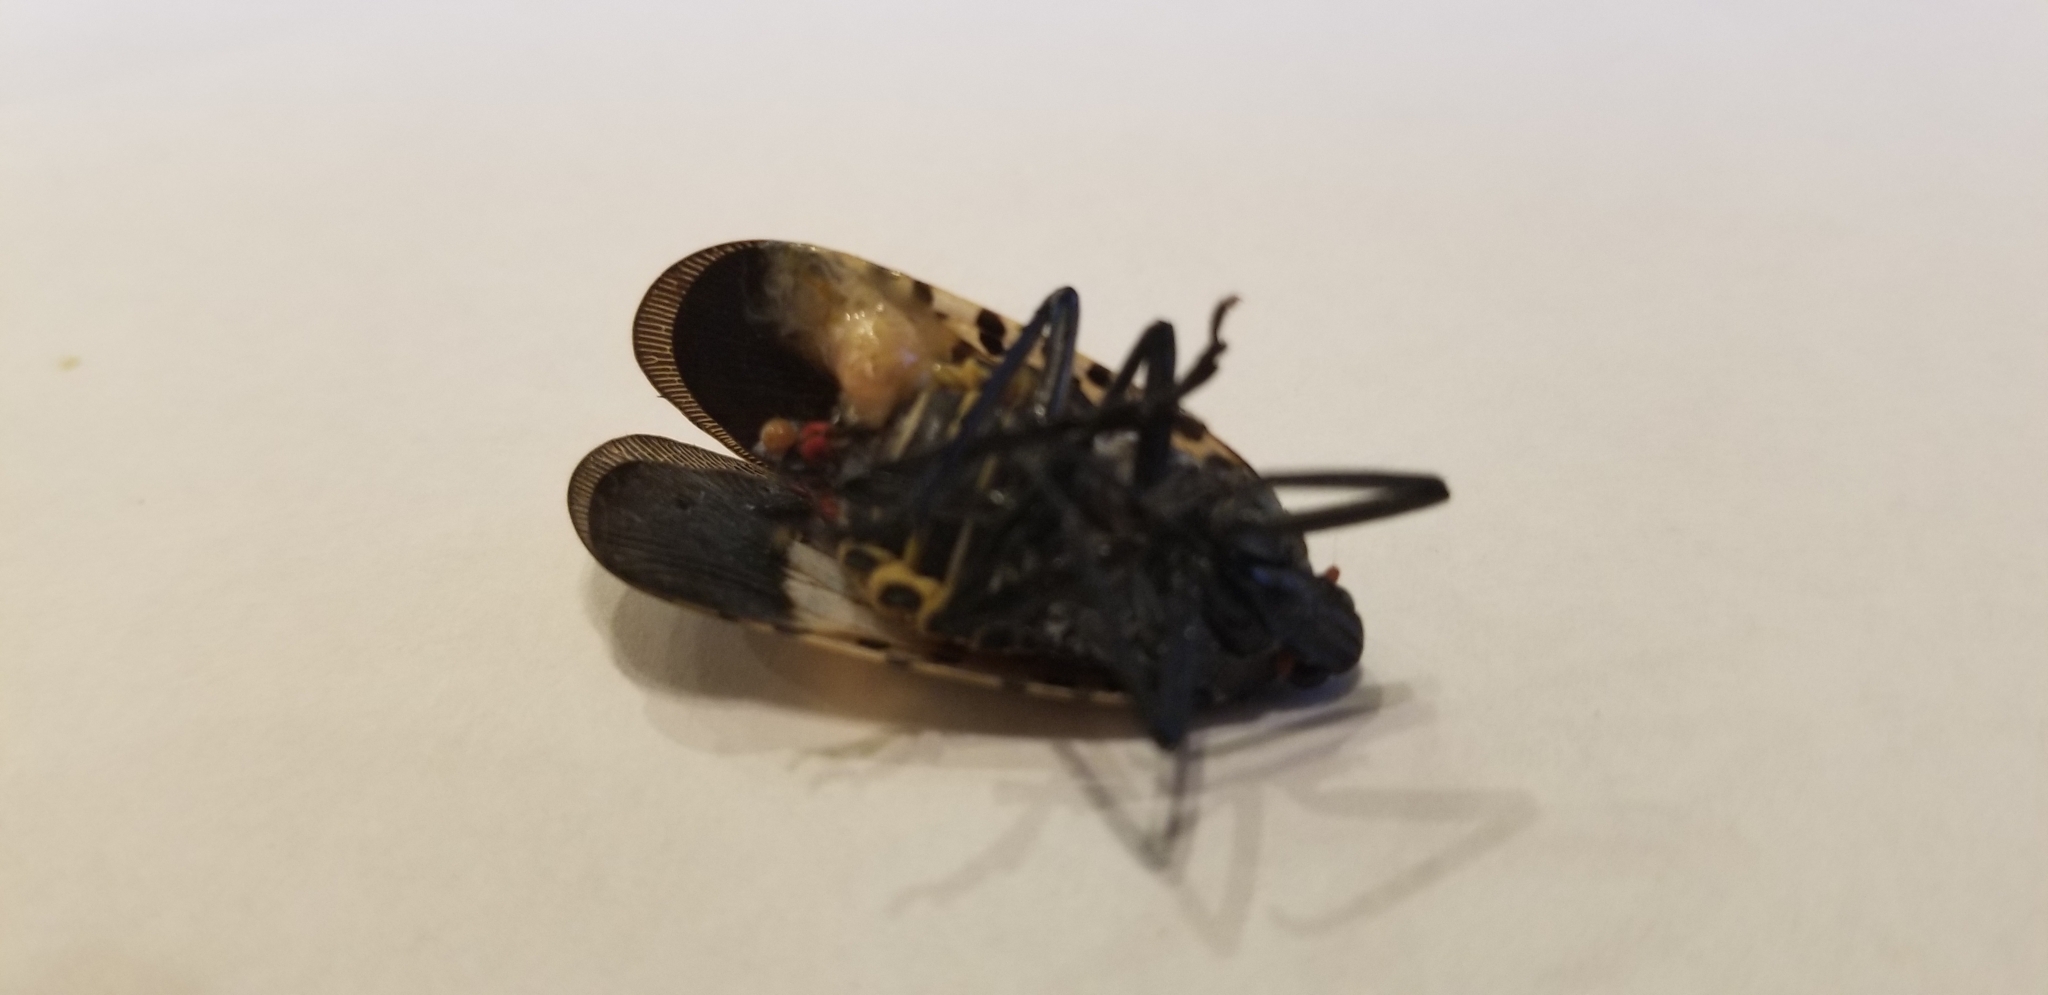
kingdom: Animalia
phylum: Arthropoda
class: Insecta
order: Hemiptera
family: Fulgoridae
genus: Lycorma
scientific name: Lycorma delicatula
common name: Spotted lanternfly
